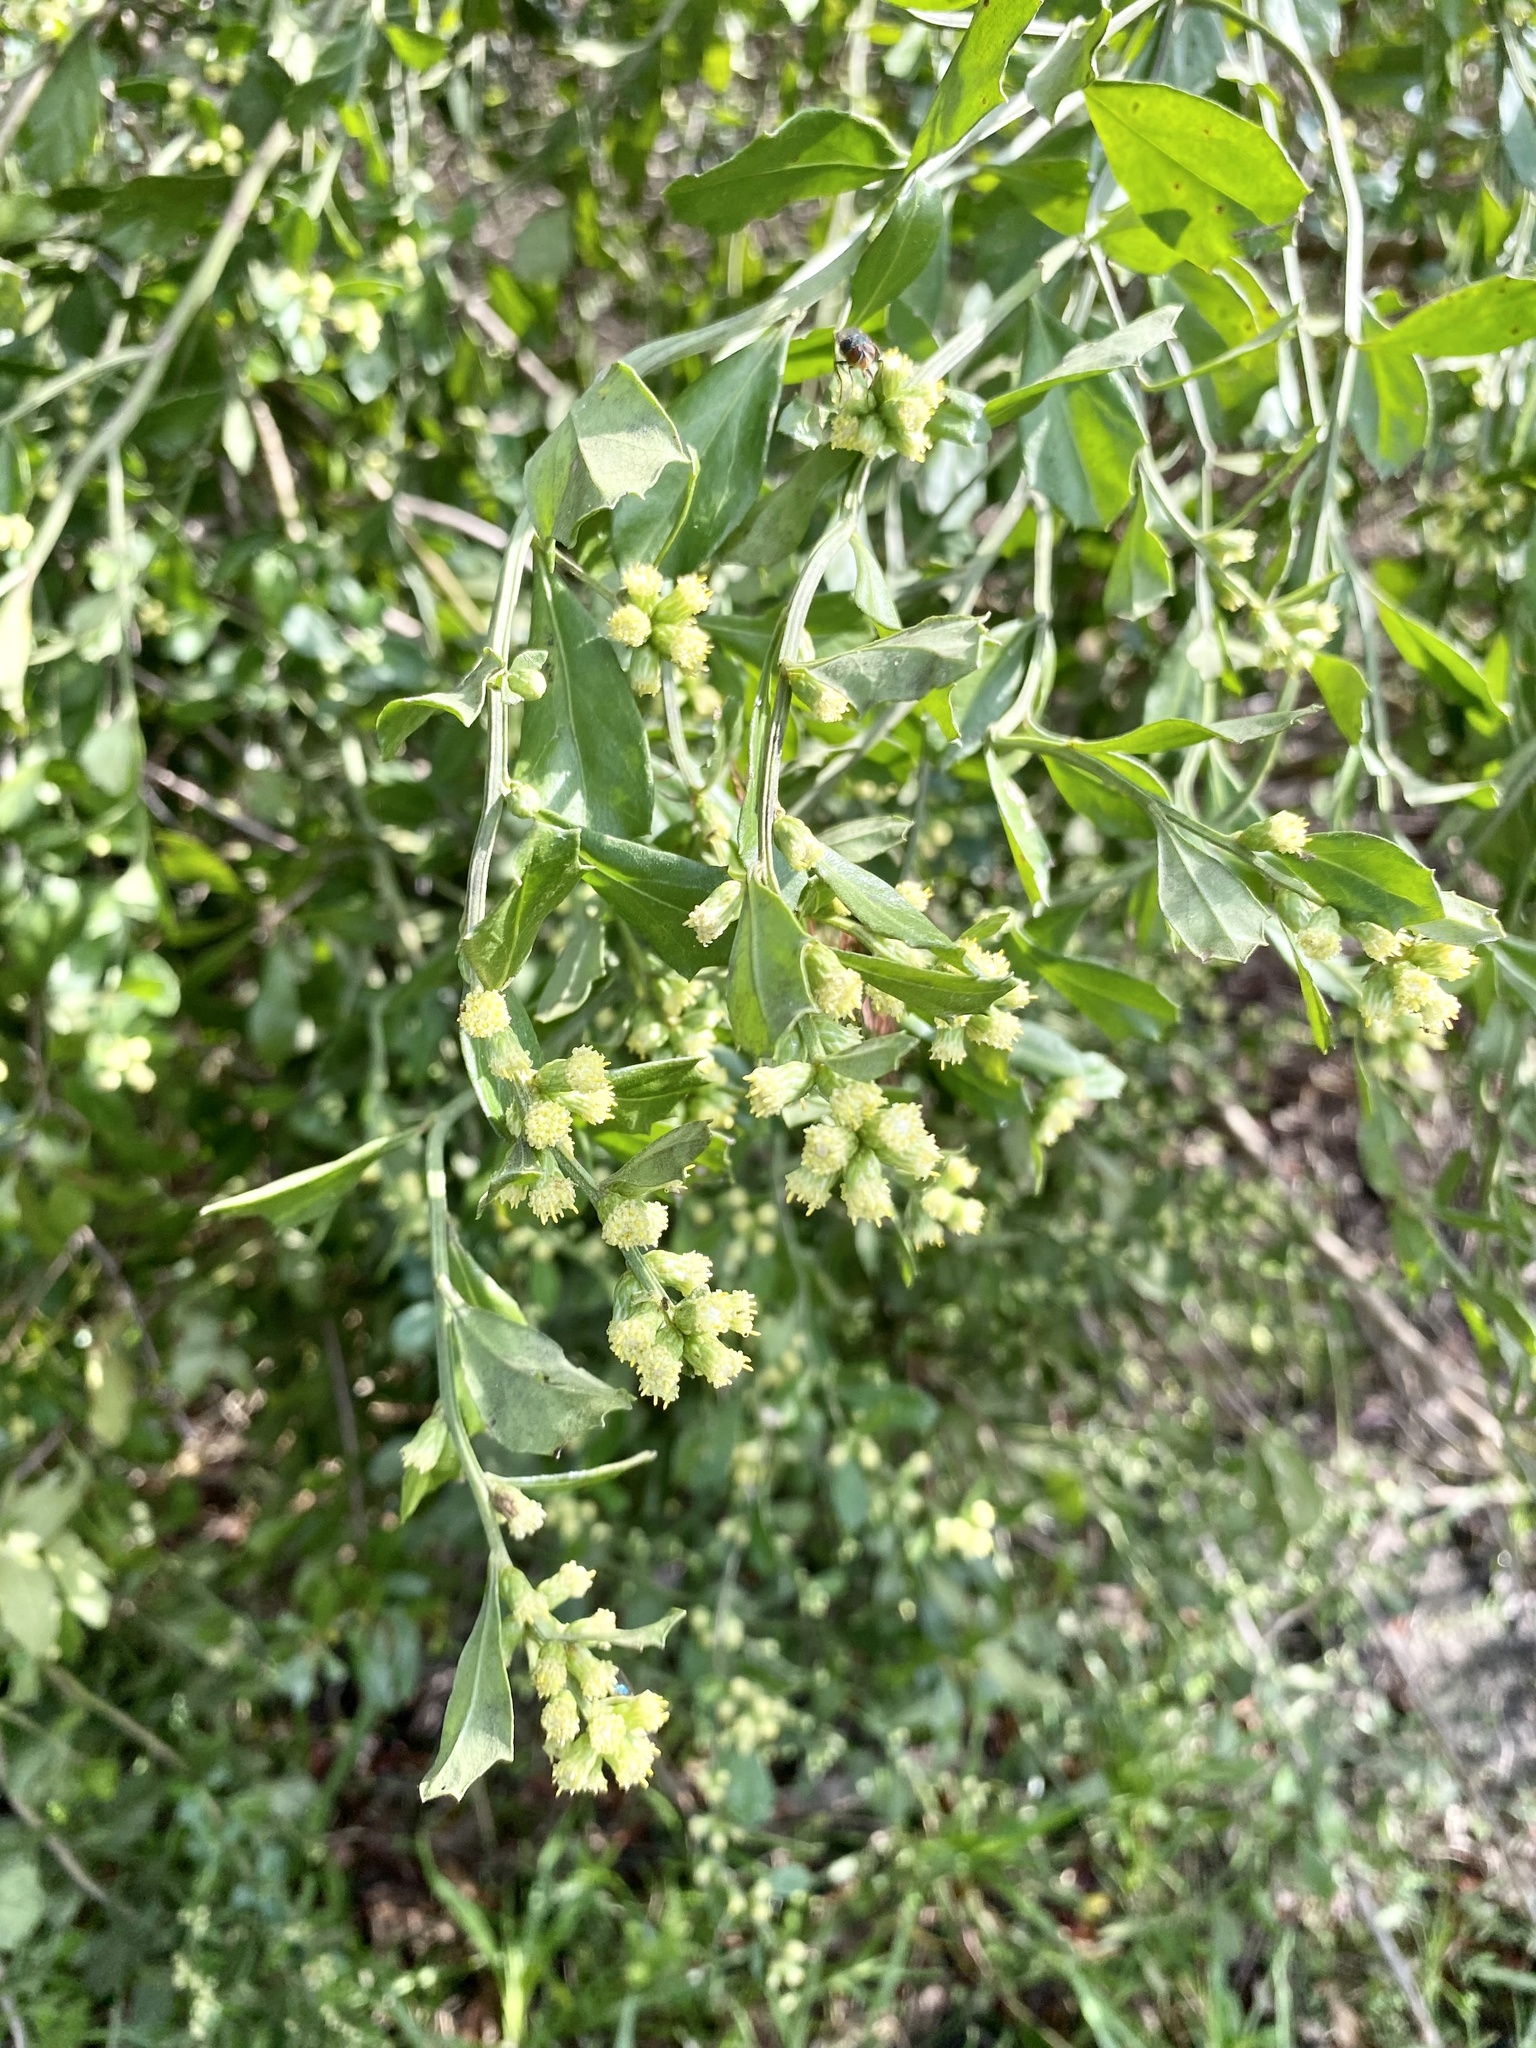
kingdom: Plantae
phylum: Tracheophyta
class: Magnoliopsida
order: Asterales
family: Asteraceae
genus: Baccharis
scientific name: Baccharis glomeruliflora
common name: Silverling groundsel bush
